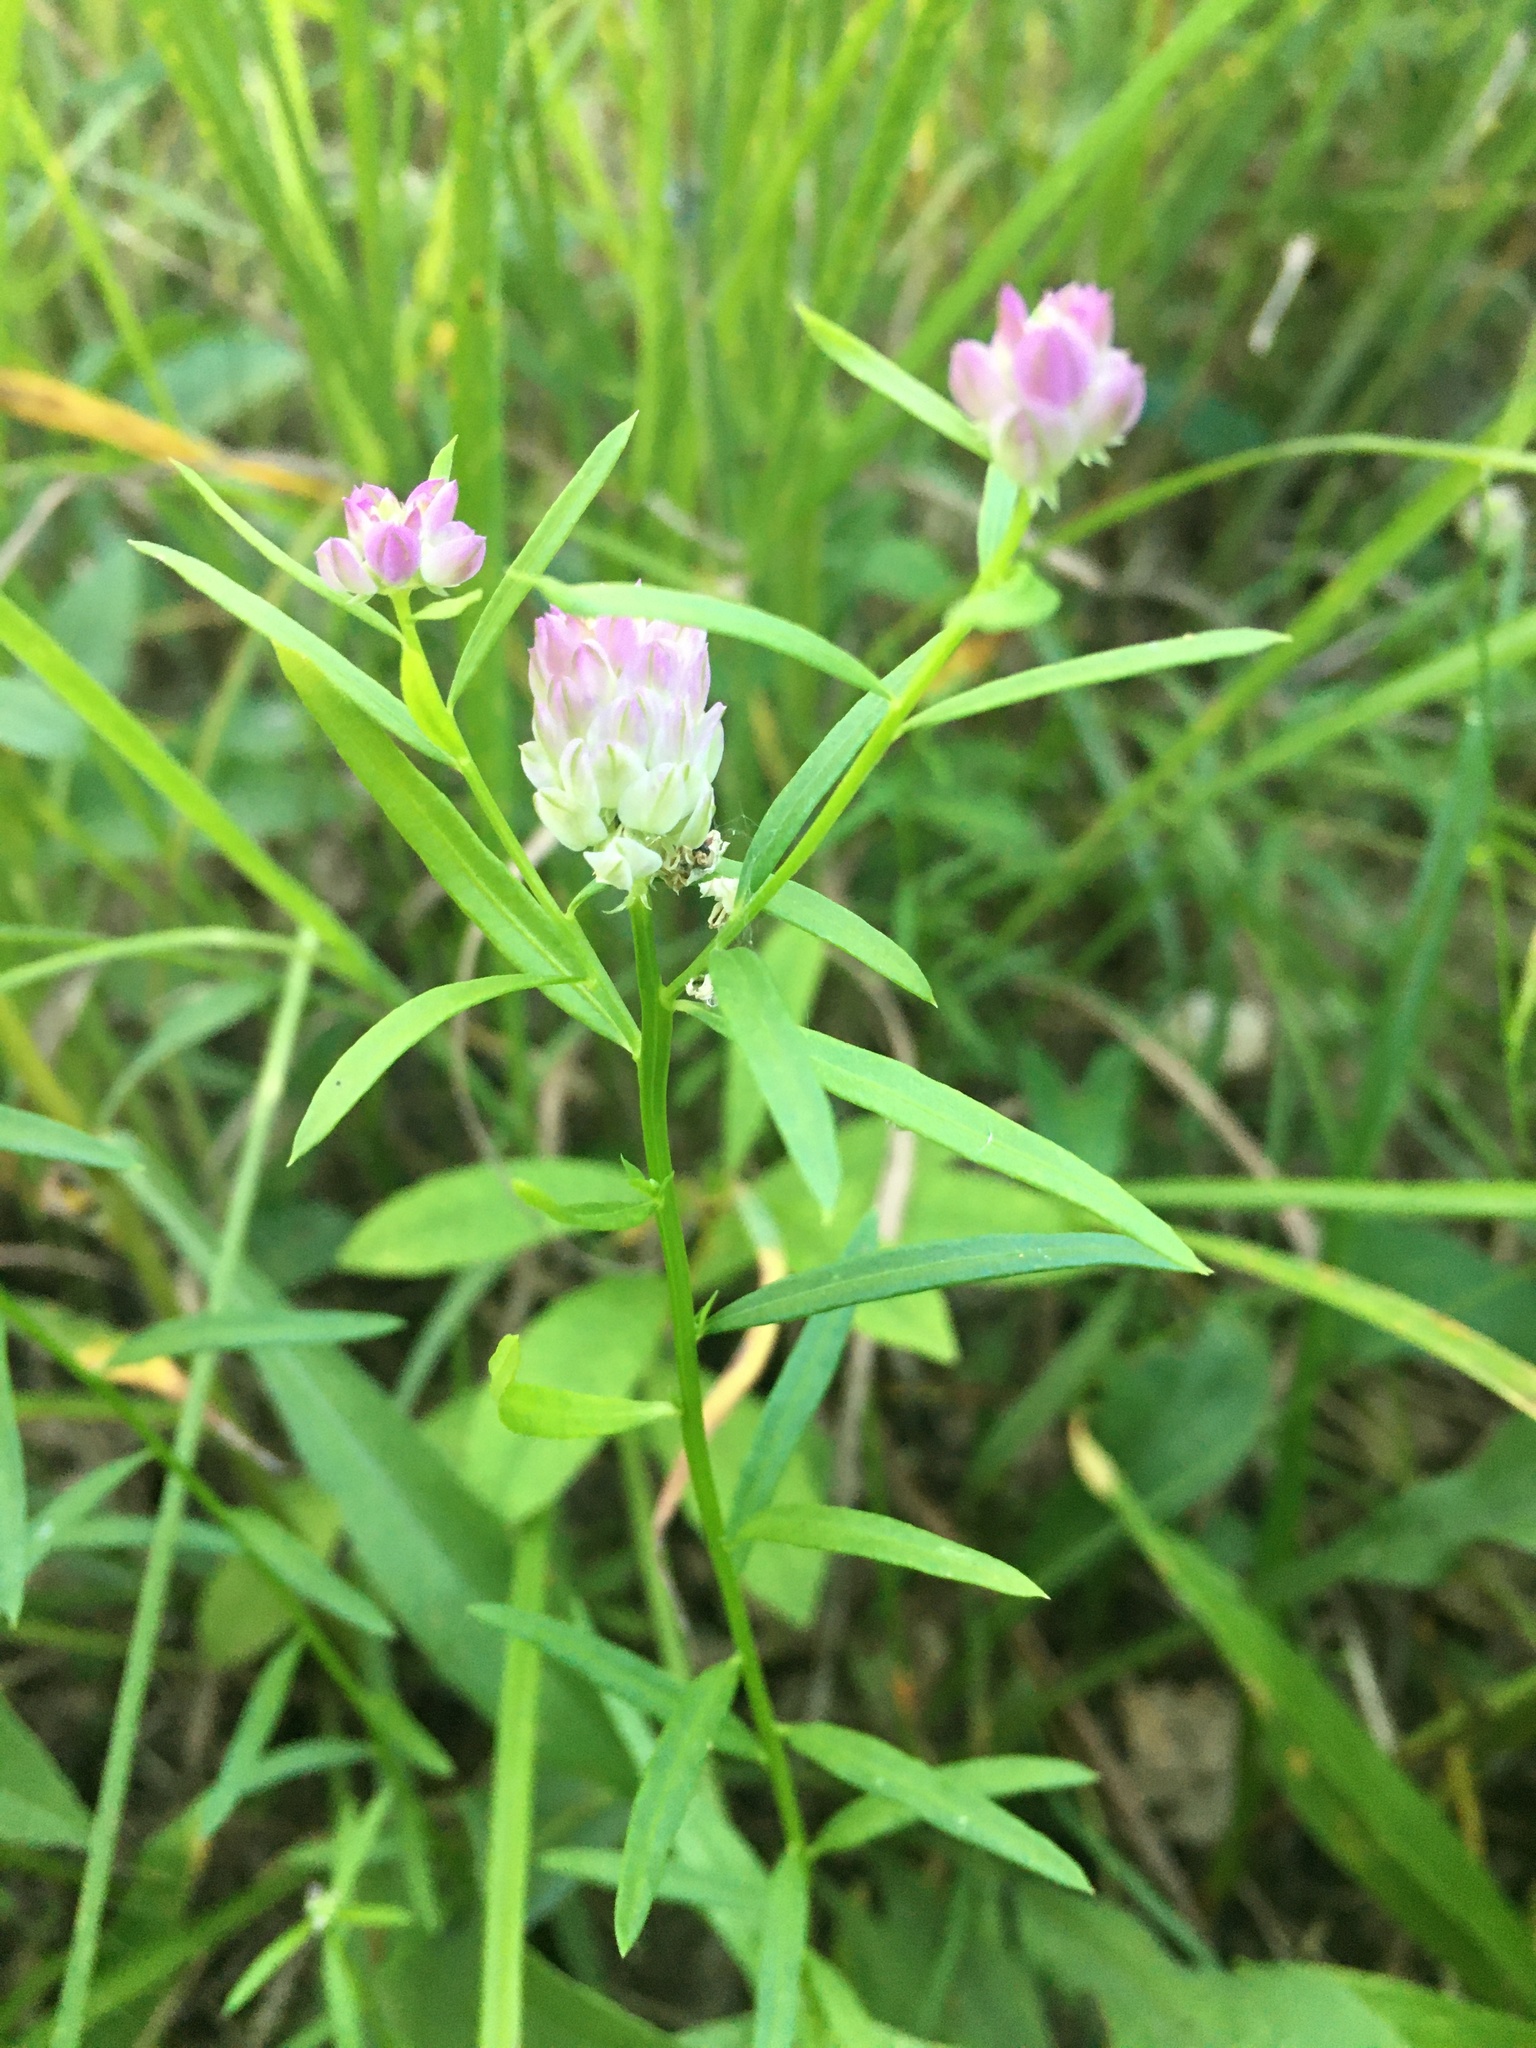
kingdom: Plantae
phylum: Tracheophyta
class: Magnoliopsida
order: Fabales
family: Polygalaceae
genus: Polygala
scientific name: Polygala sanguinea
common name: Blood milkwort
